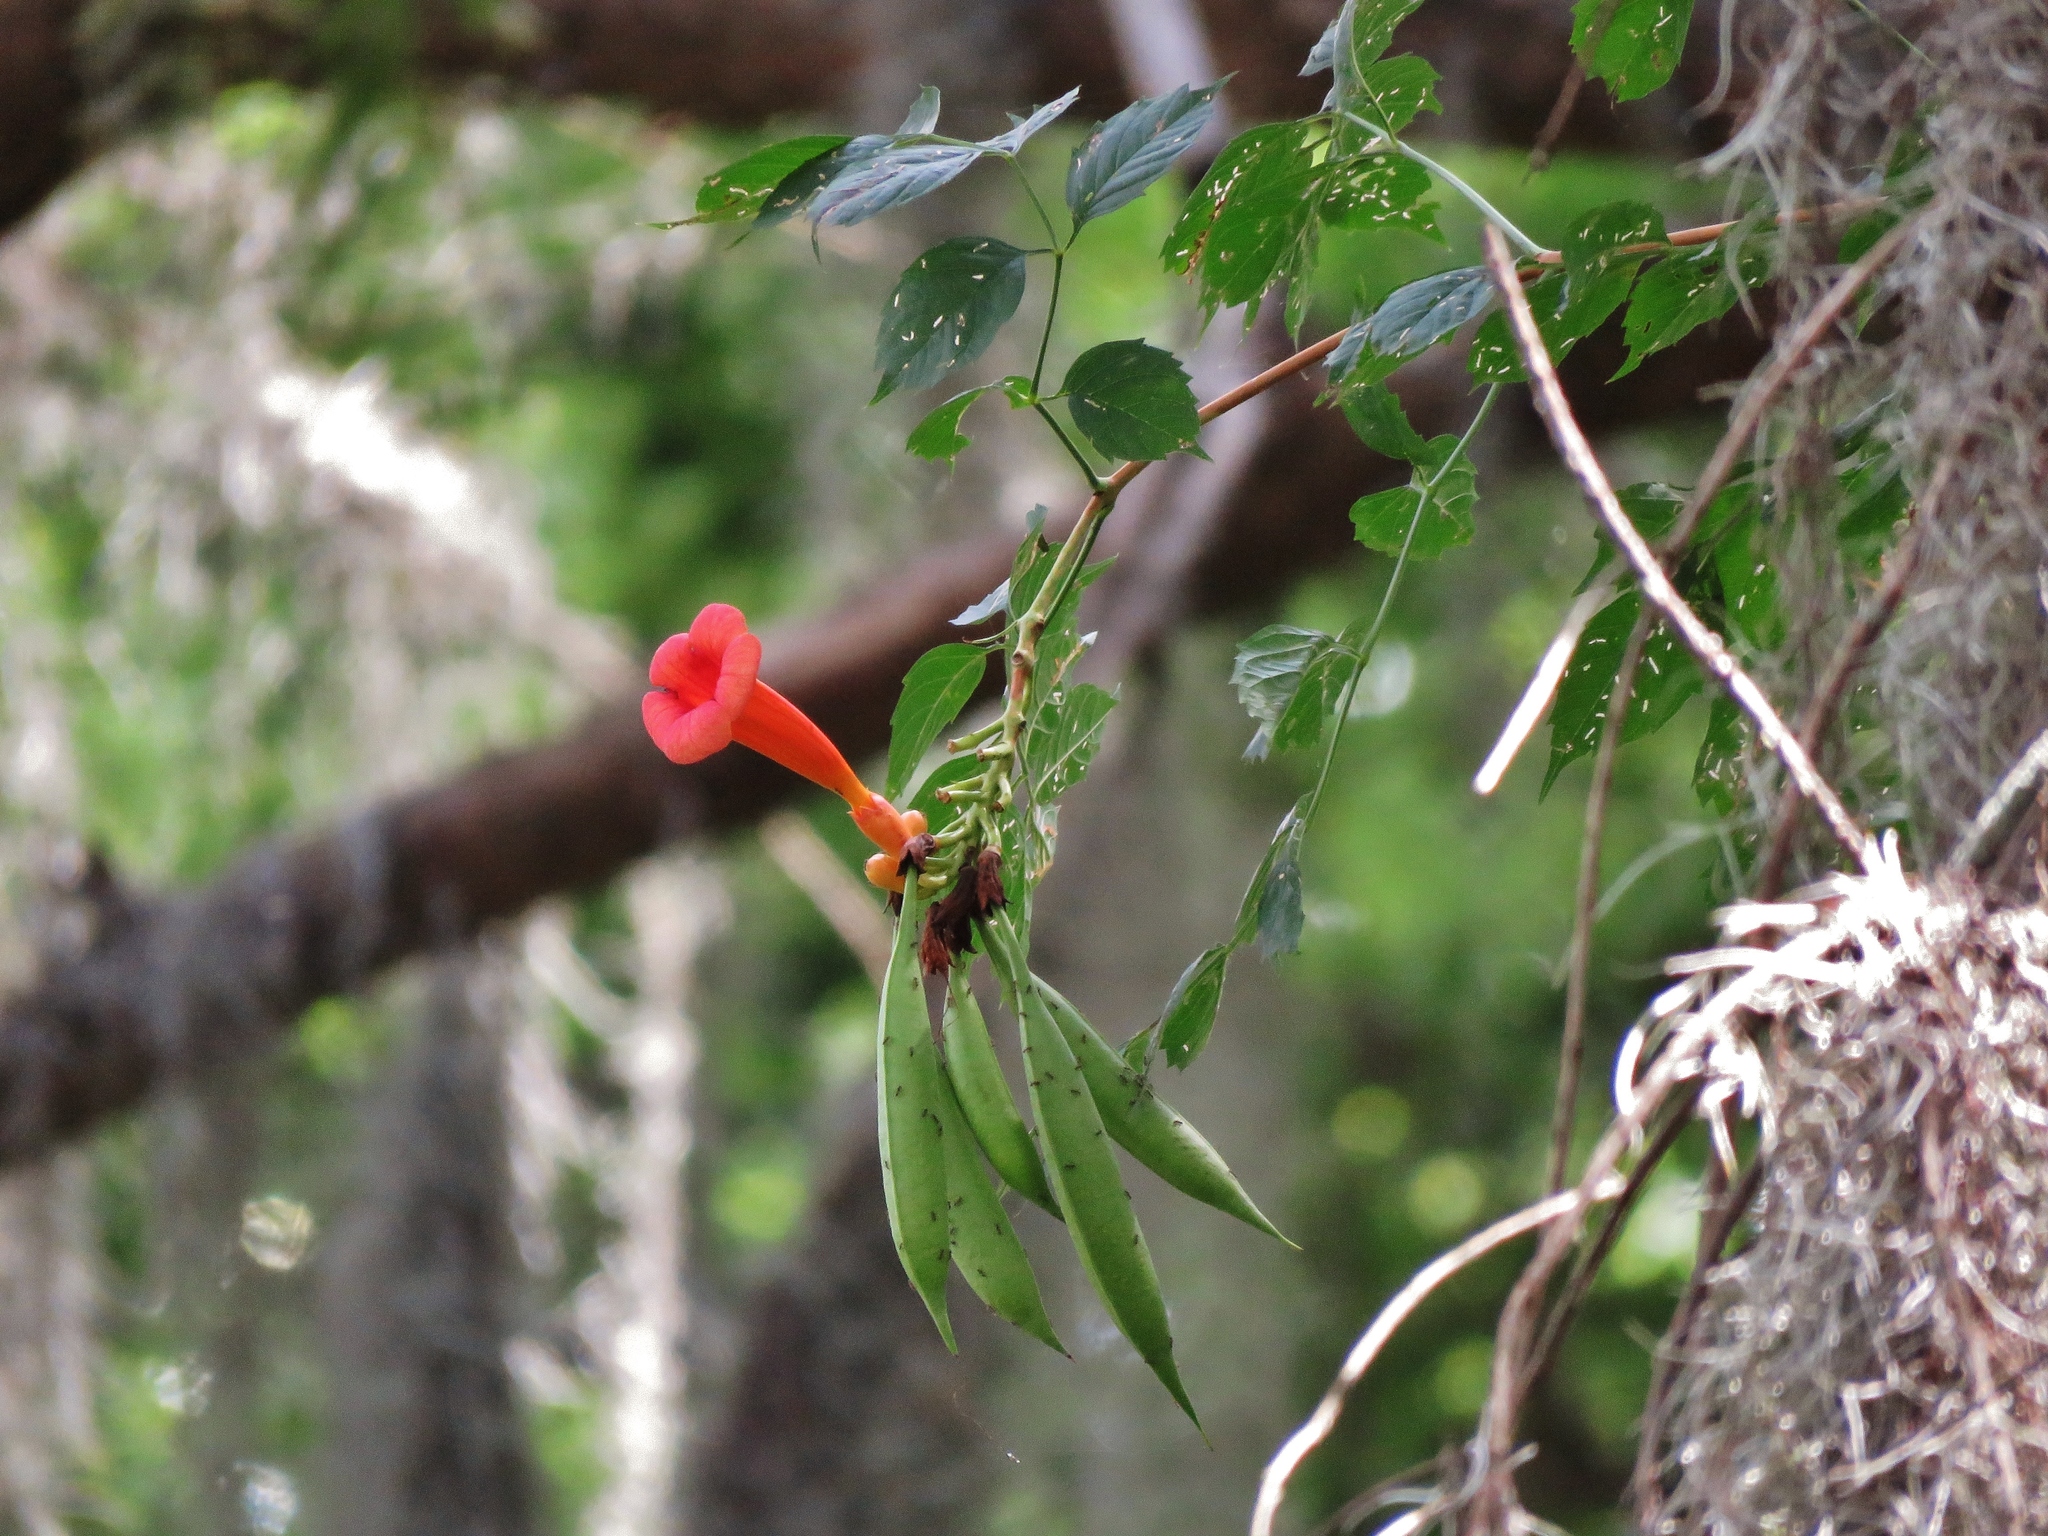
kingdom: Plantae
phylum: Tracheophyta
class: Magnoliopsida
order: Lamiales
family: Bignoniaceae
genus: Campsis
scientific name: Campsis radicans
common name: Trumpet-creeper
